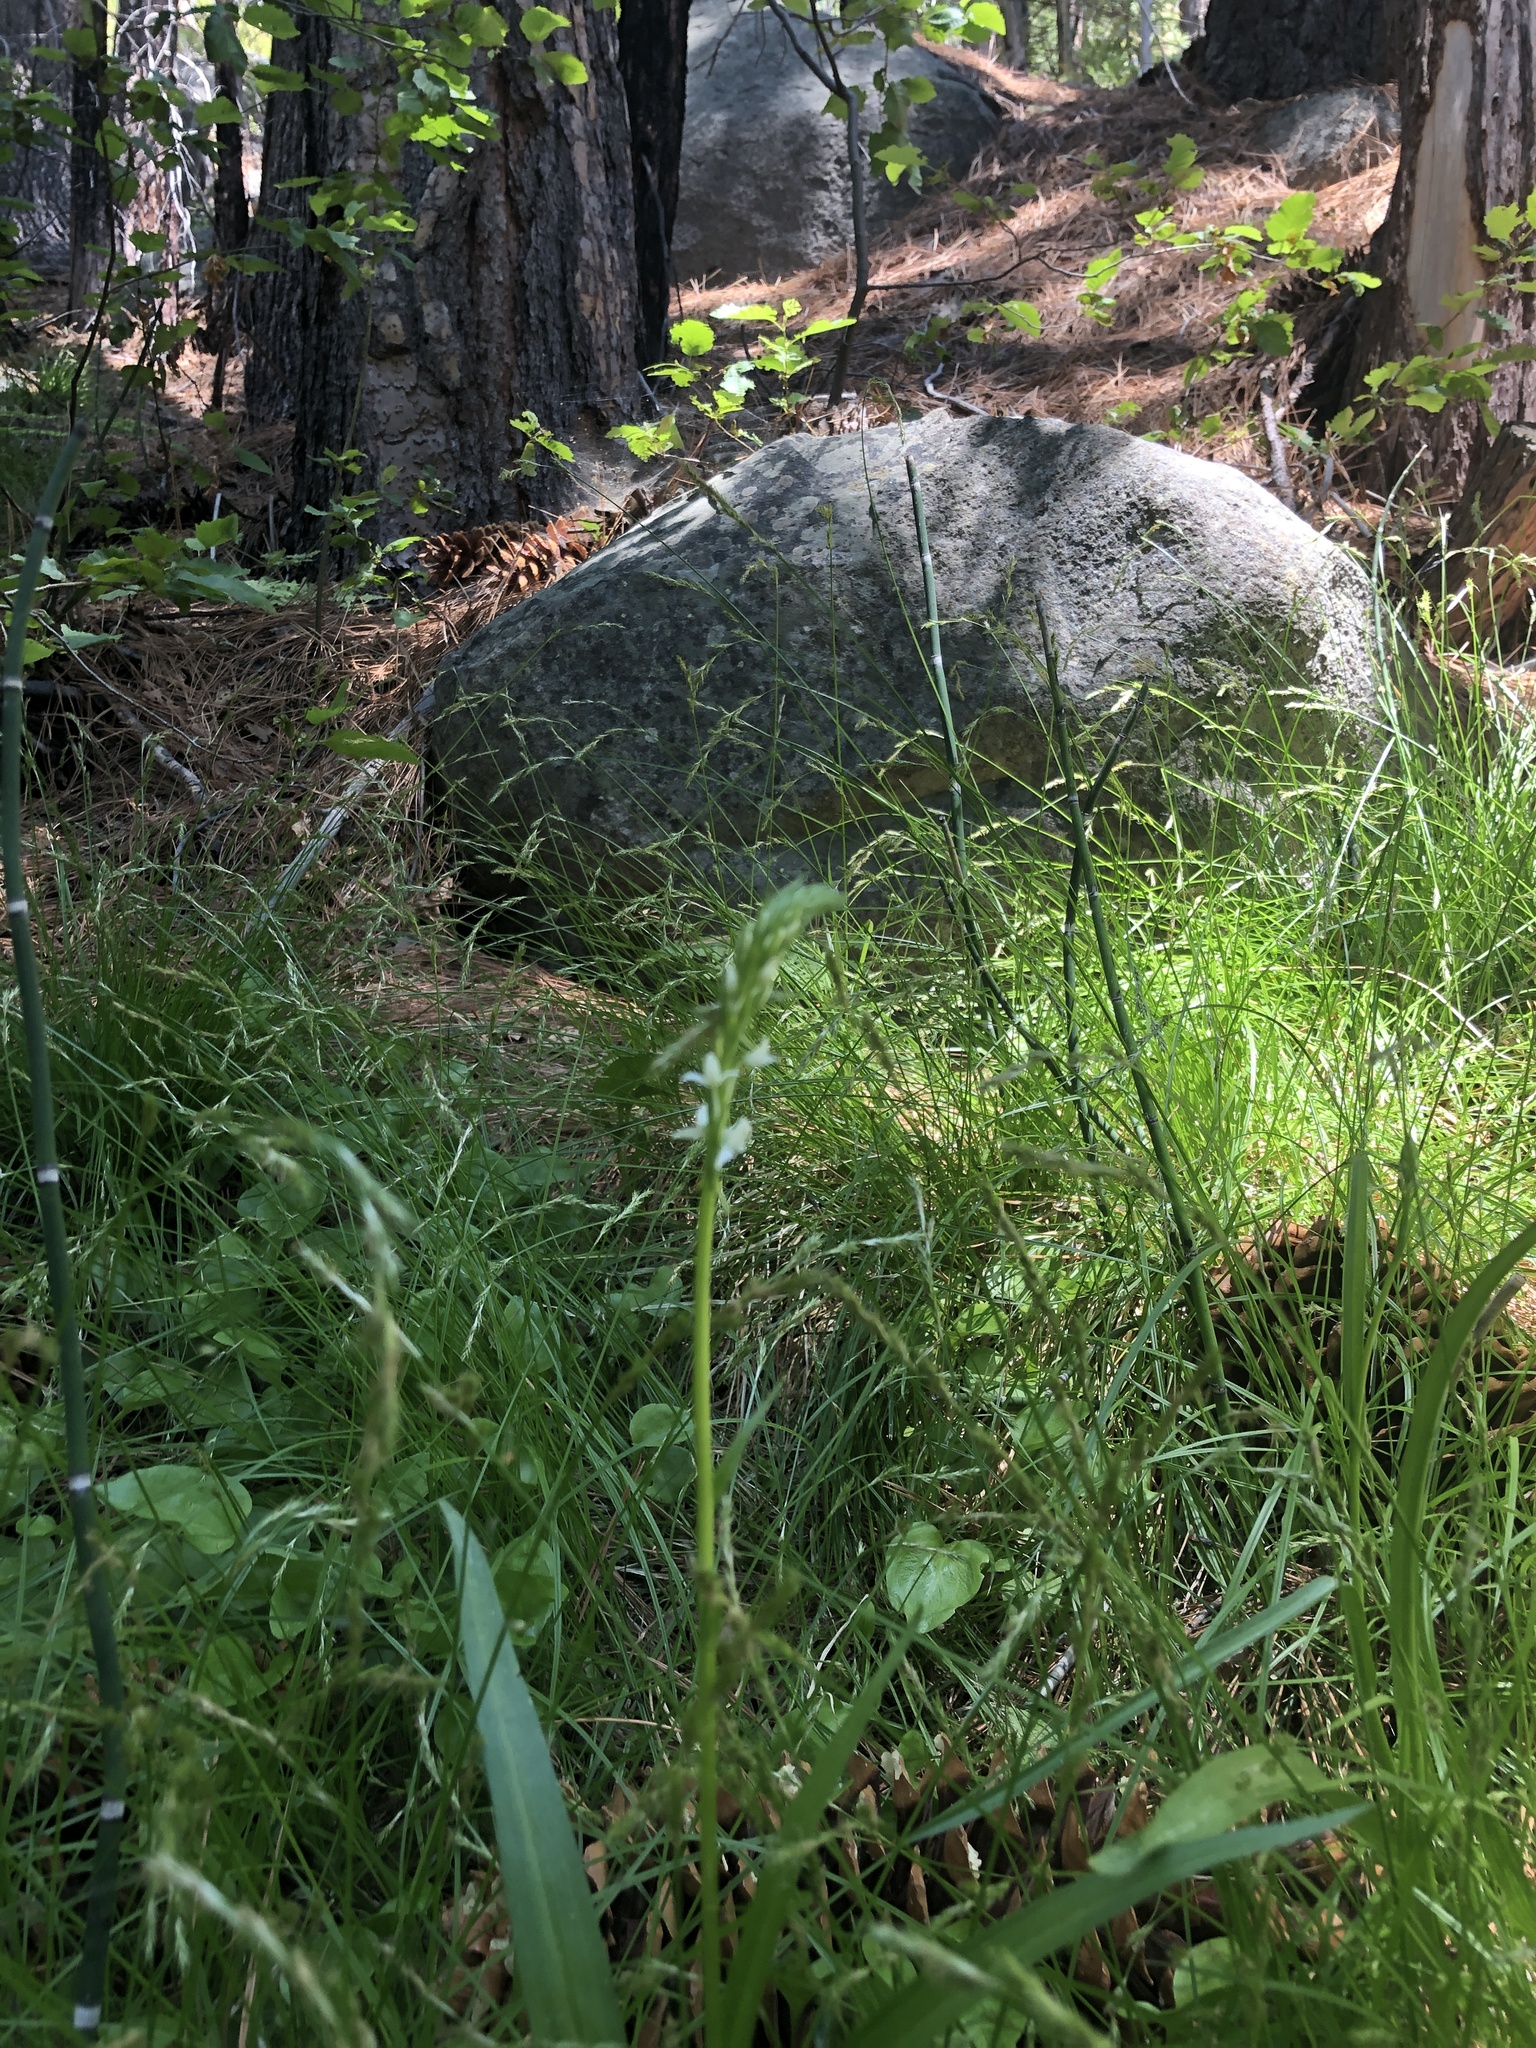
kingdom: Plantae
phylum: Tracheophyta
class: Liliopsida
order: Asparagales
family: Orchidaceae
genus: Platanthera
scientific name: Platanthera dilatata
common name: Bog candles
